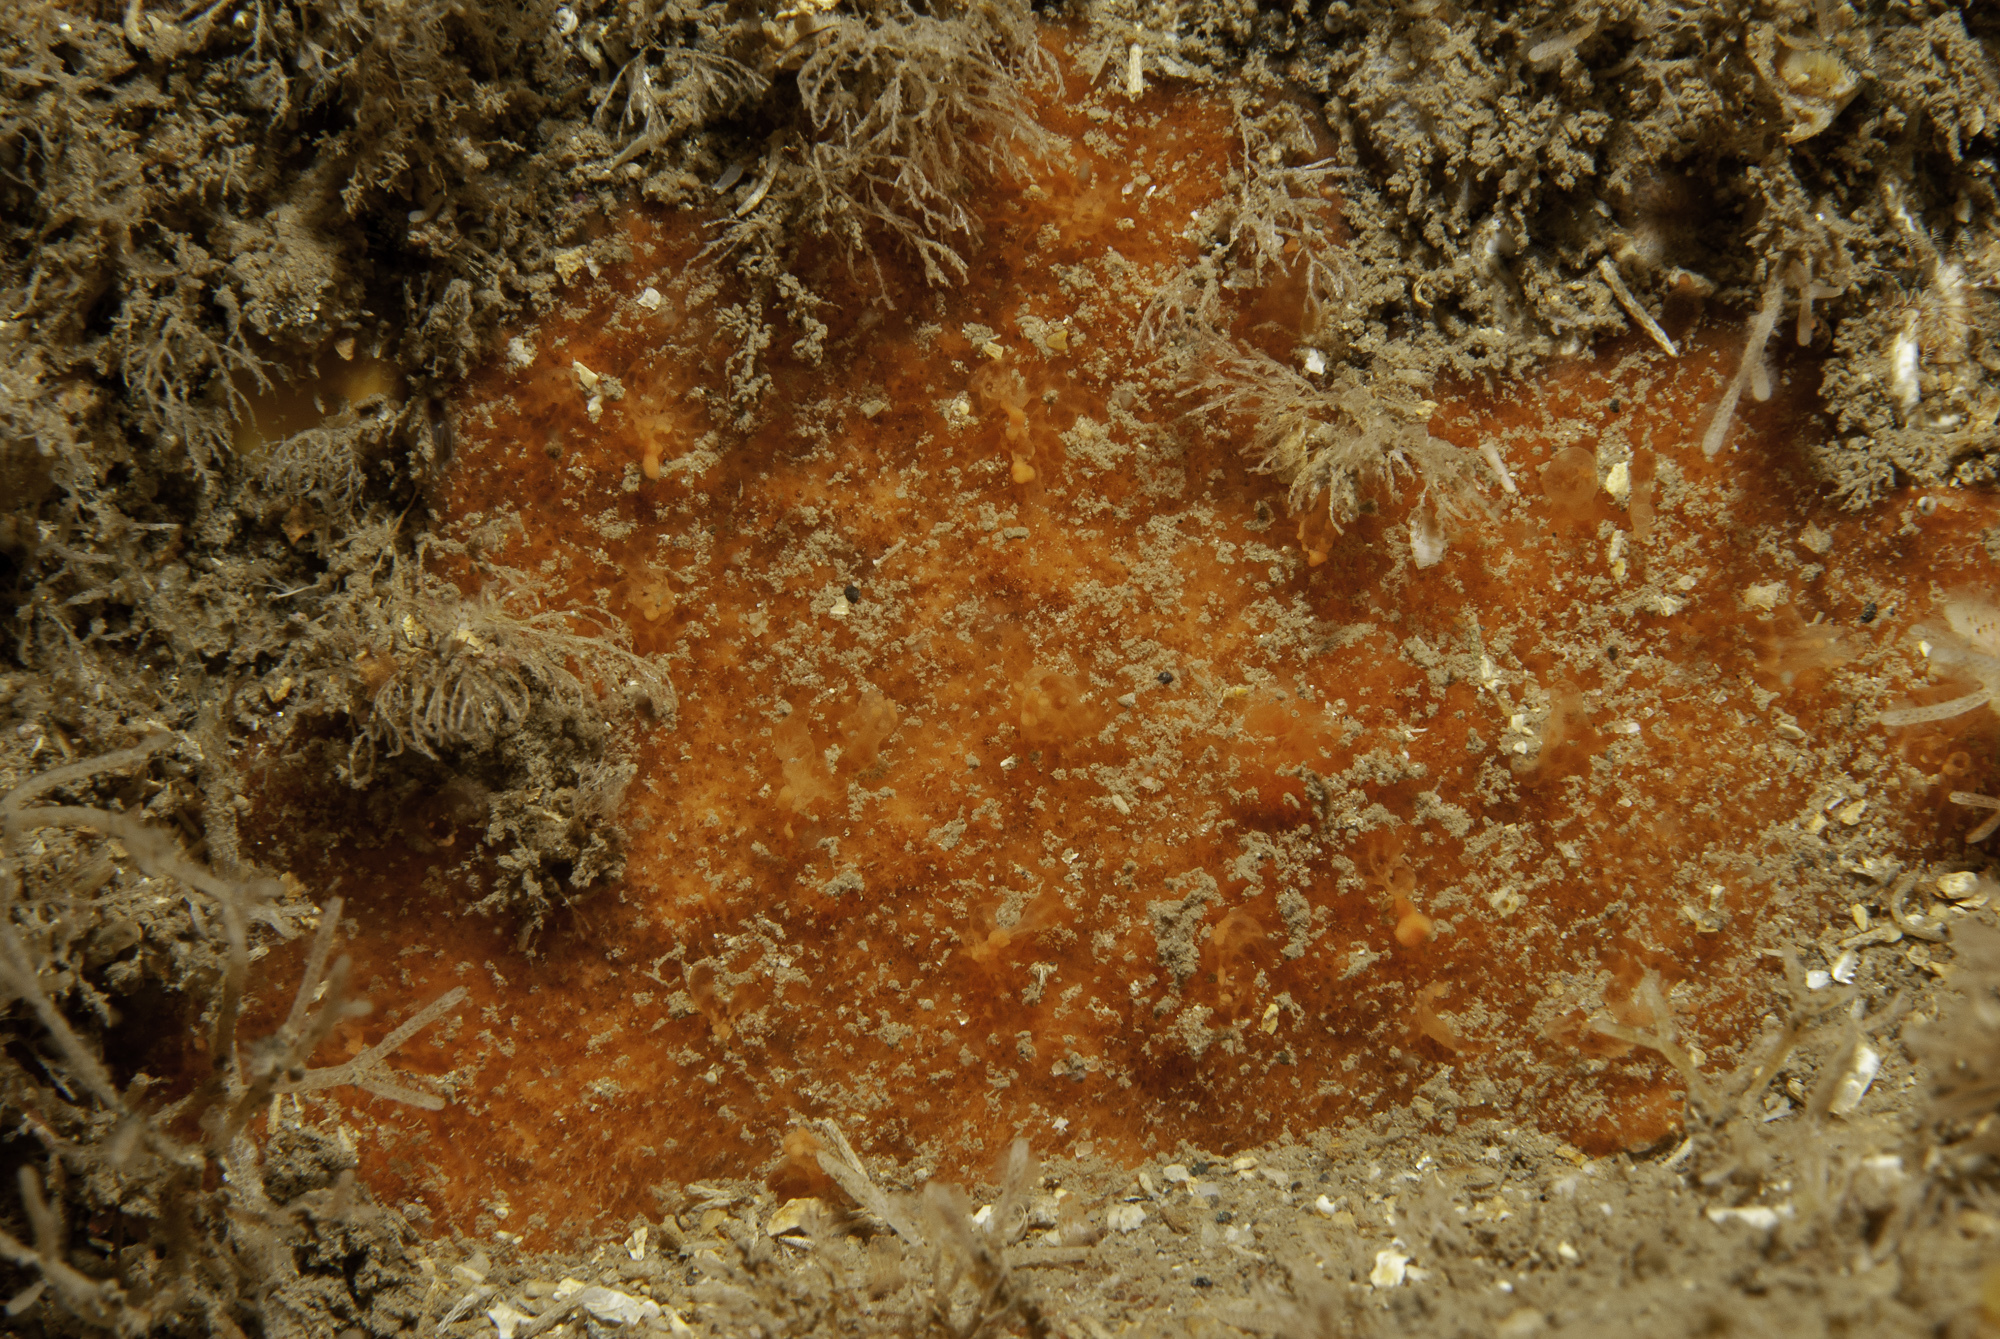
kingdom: Animalia
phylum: Porifera
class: Demospongiae
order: Axinellida
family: Raspailiidae
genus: Hymeraphia
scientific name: Hymeraphia breeni
